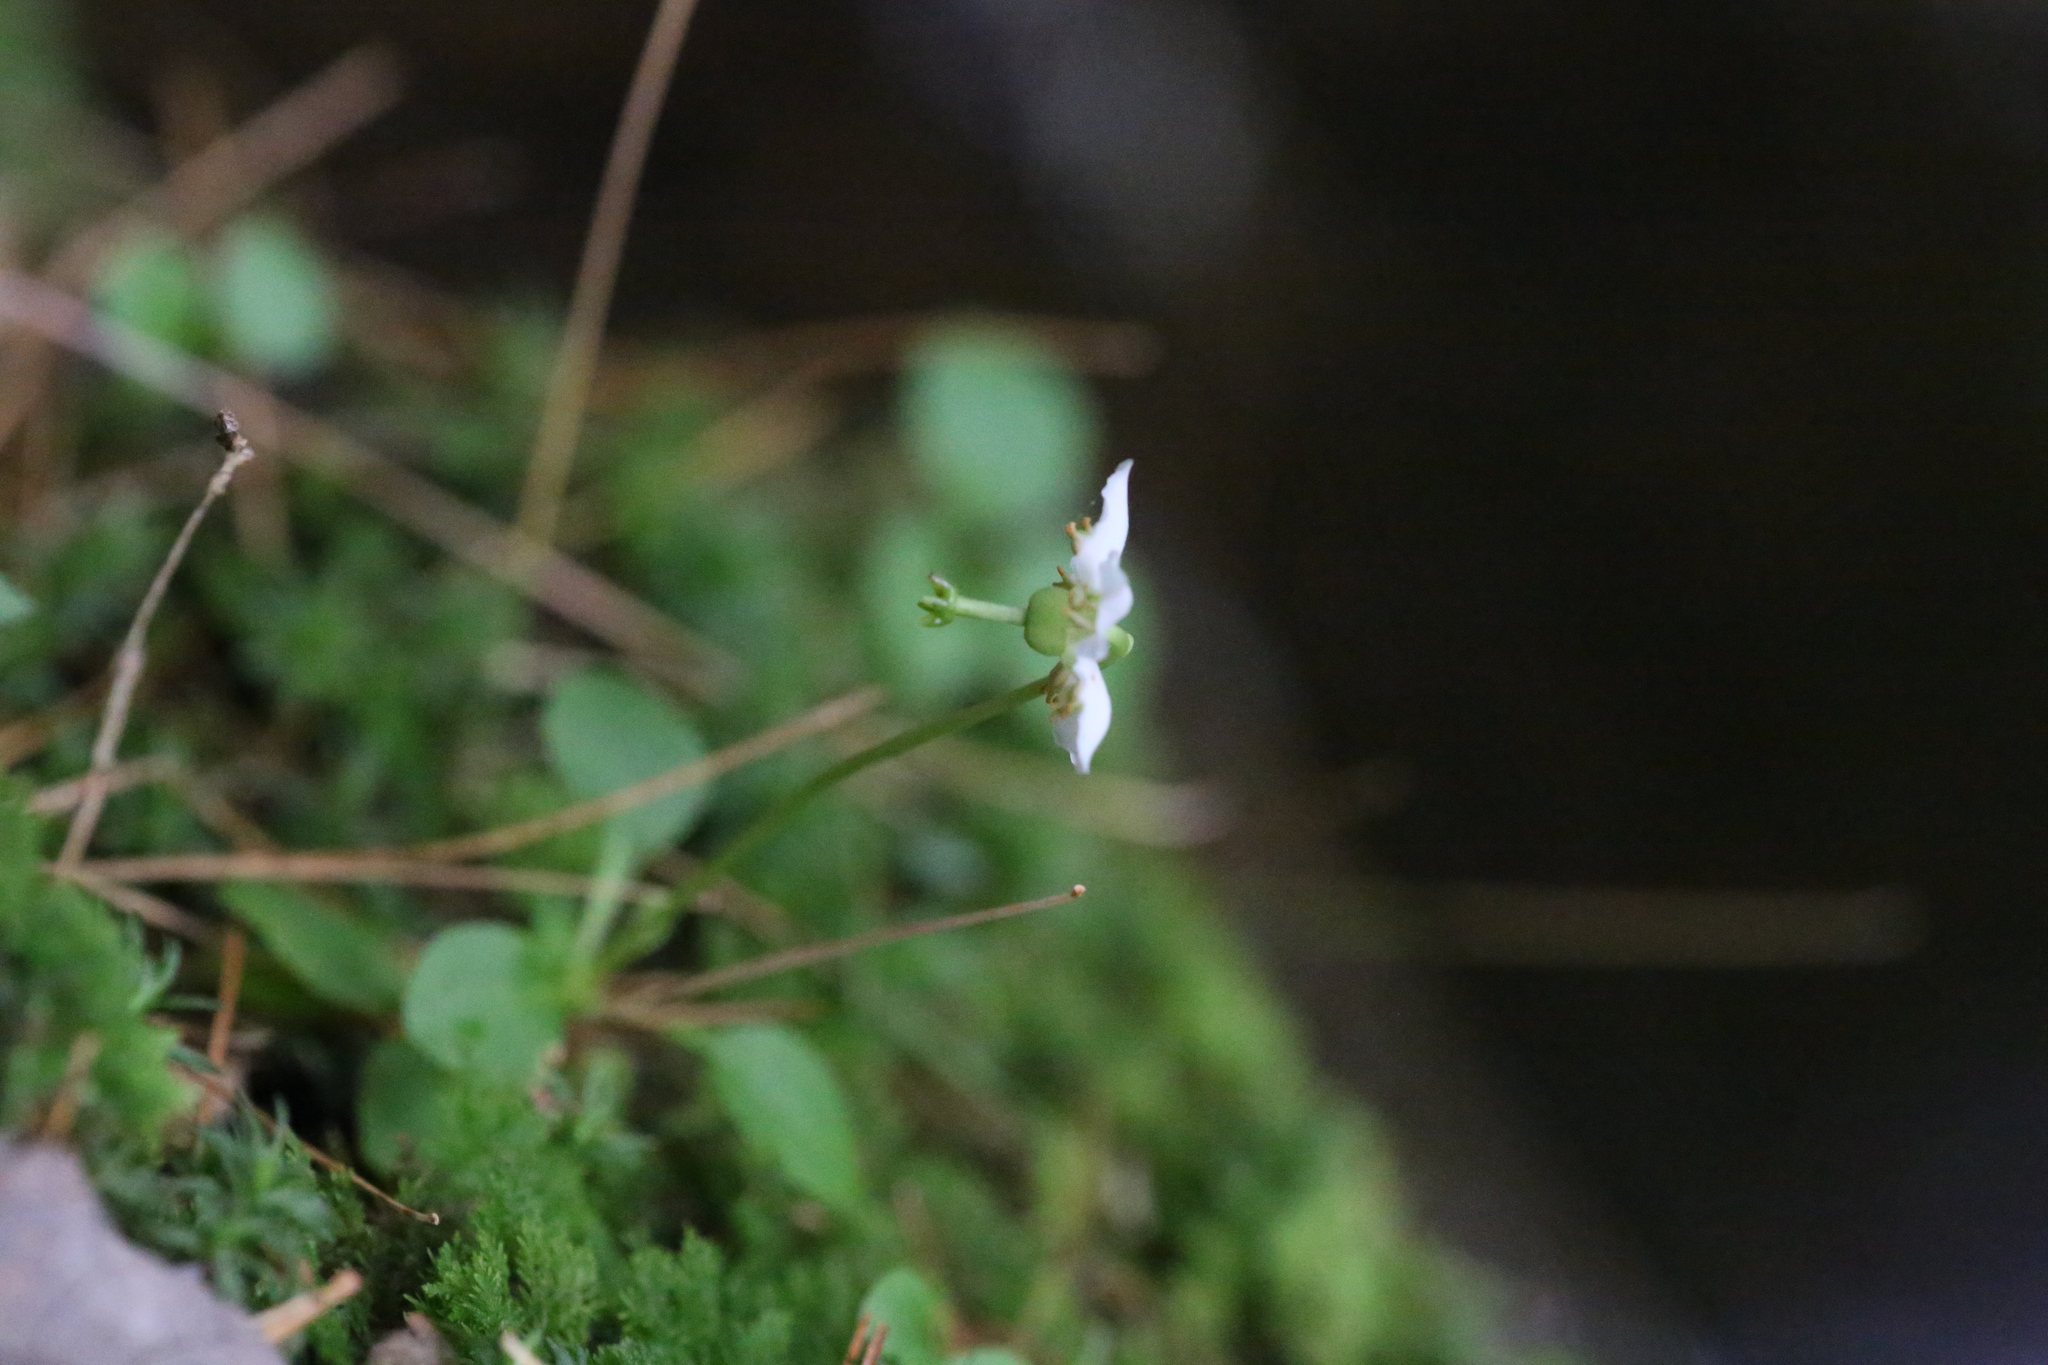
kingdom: Plantae
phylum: Tracheophyta
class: Magnoliopsida
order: Ericales
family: Ericaceae
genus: Moneses
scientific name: Moneses uniflora
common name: One-flowered wintergreen
